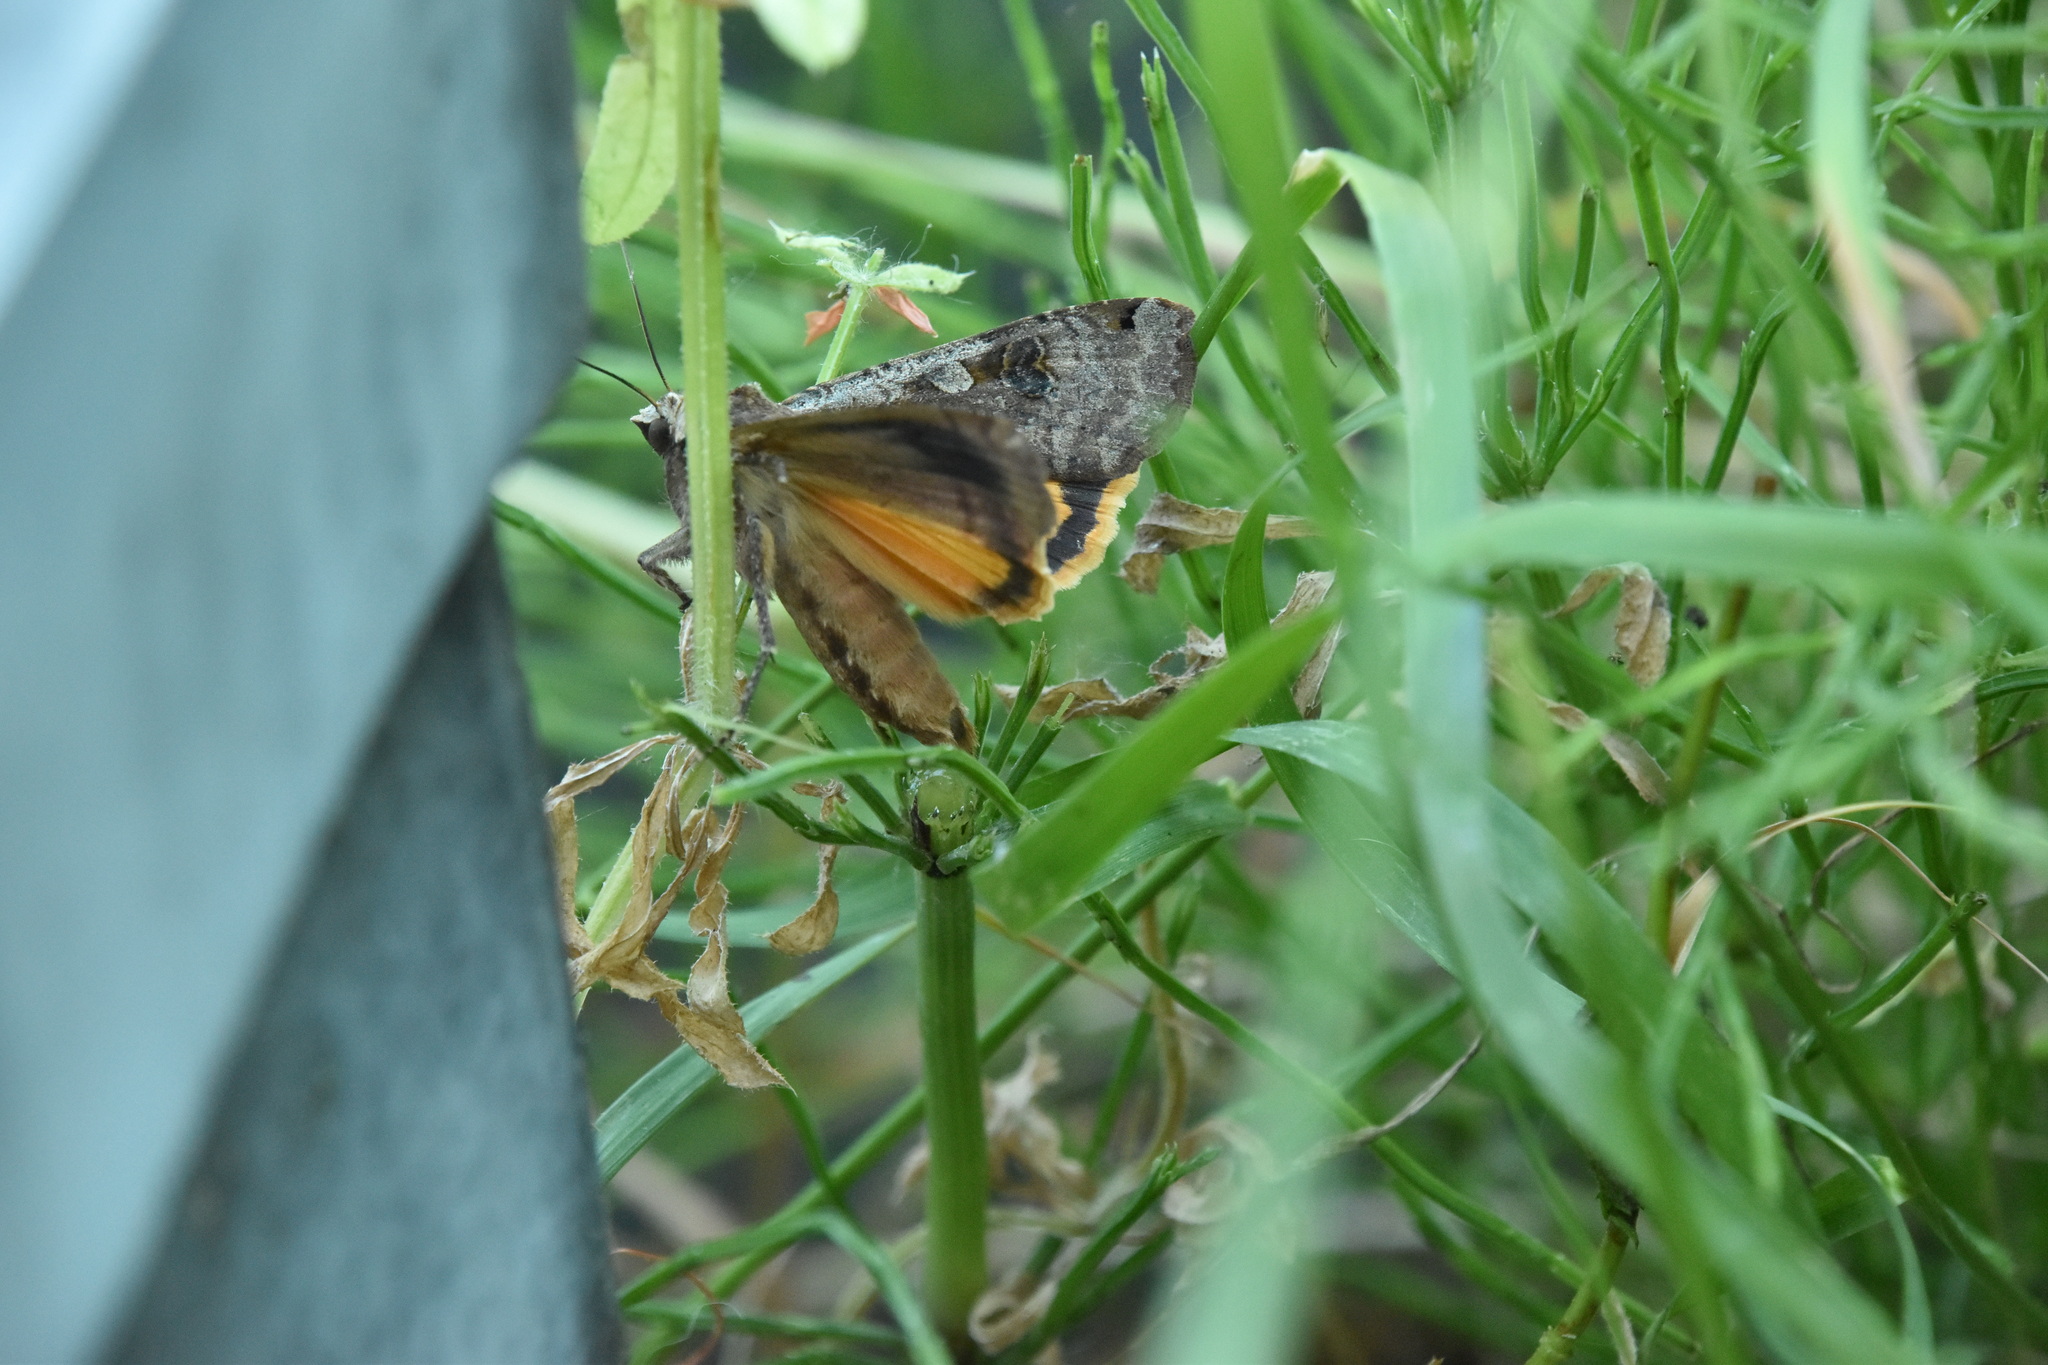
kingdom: Animalia
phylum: Arthropoda
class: Insecta
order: Lepidoptera
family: Noctuidae
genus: Noctua
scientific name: Noctua pronuba
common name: Large yellow underwing
